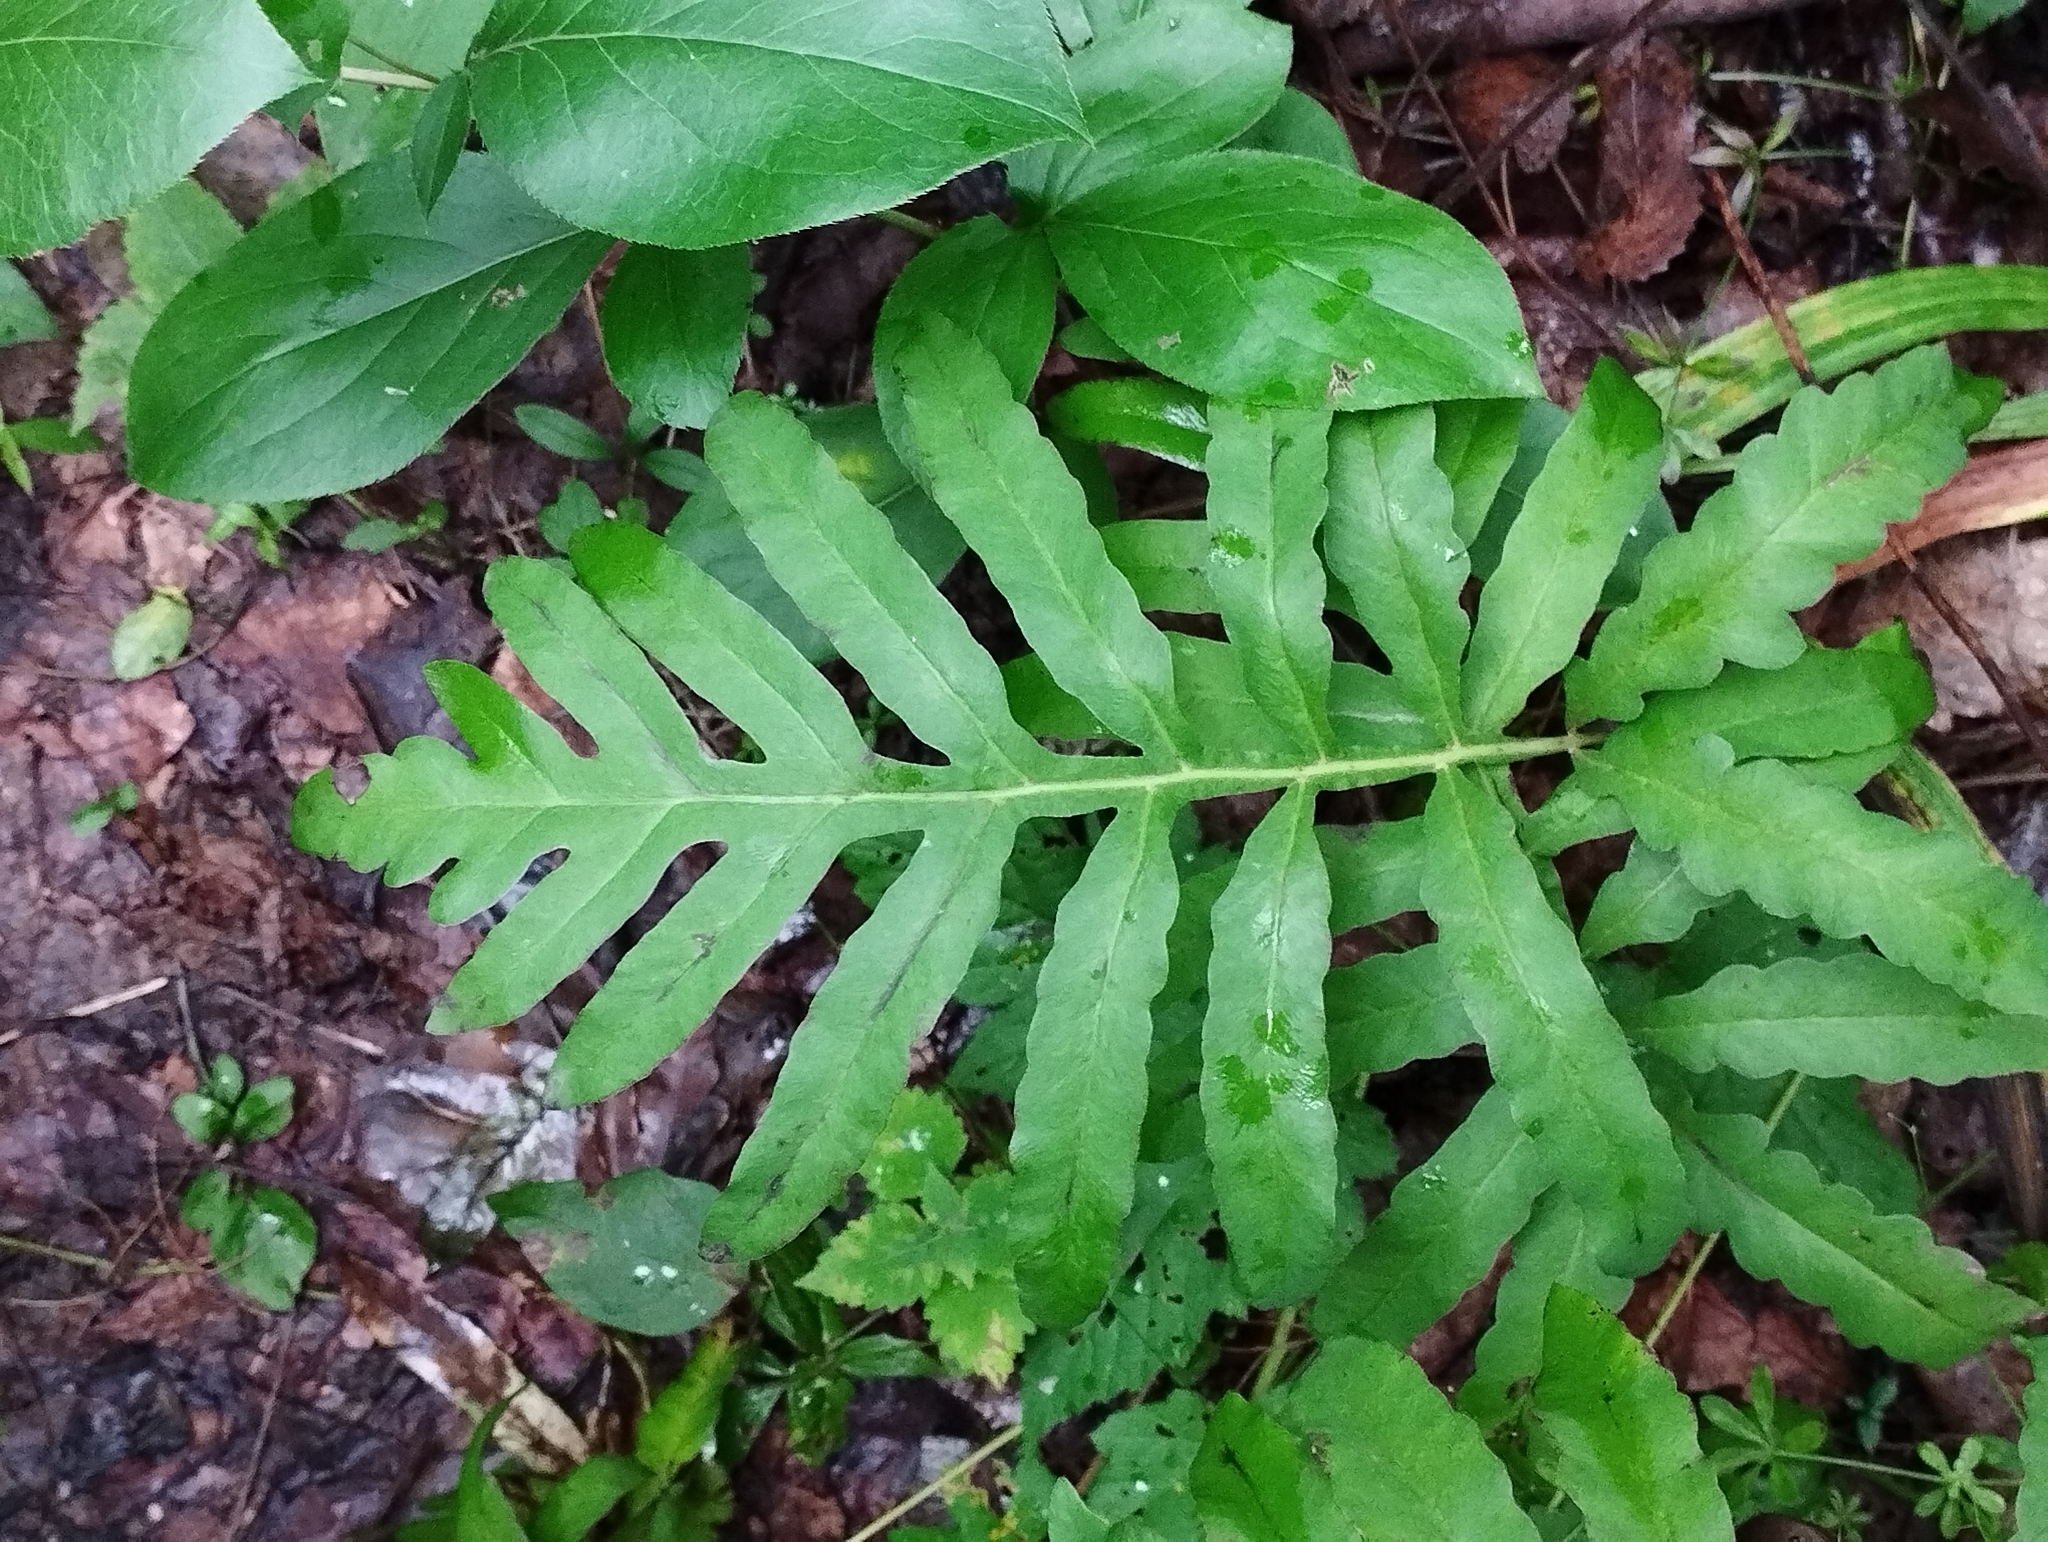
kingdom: Plantae
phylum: Tracheophyta
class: Polypodiopsida
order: Polypodiales
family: Onocleaceae
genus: Onoclea
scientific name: Onoclea sensibilis
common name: Sensitive fern
